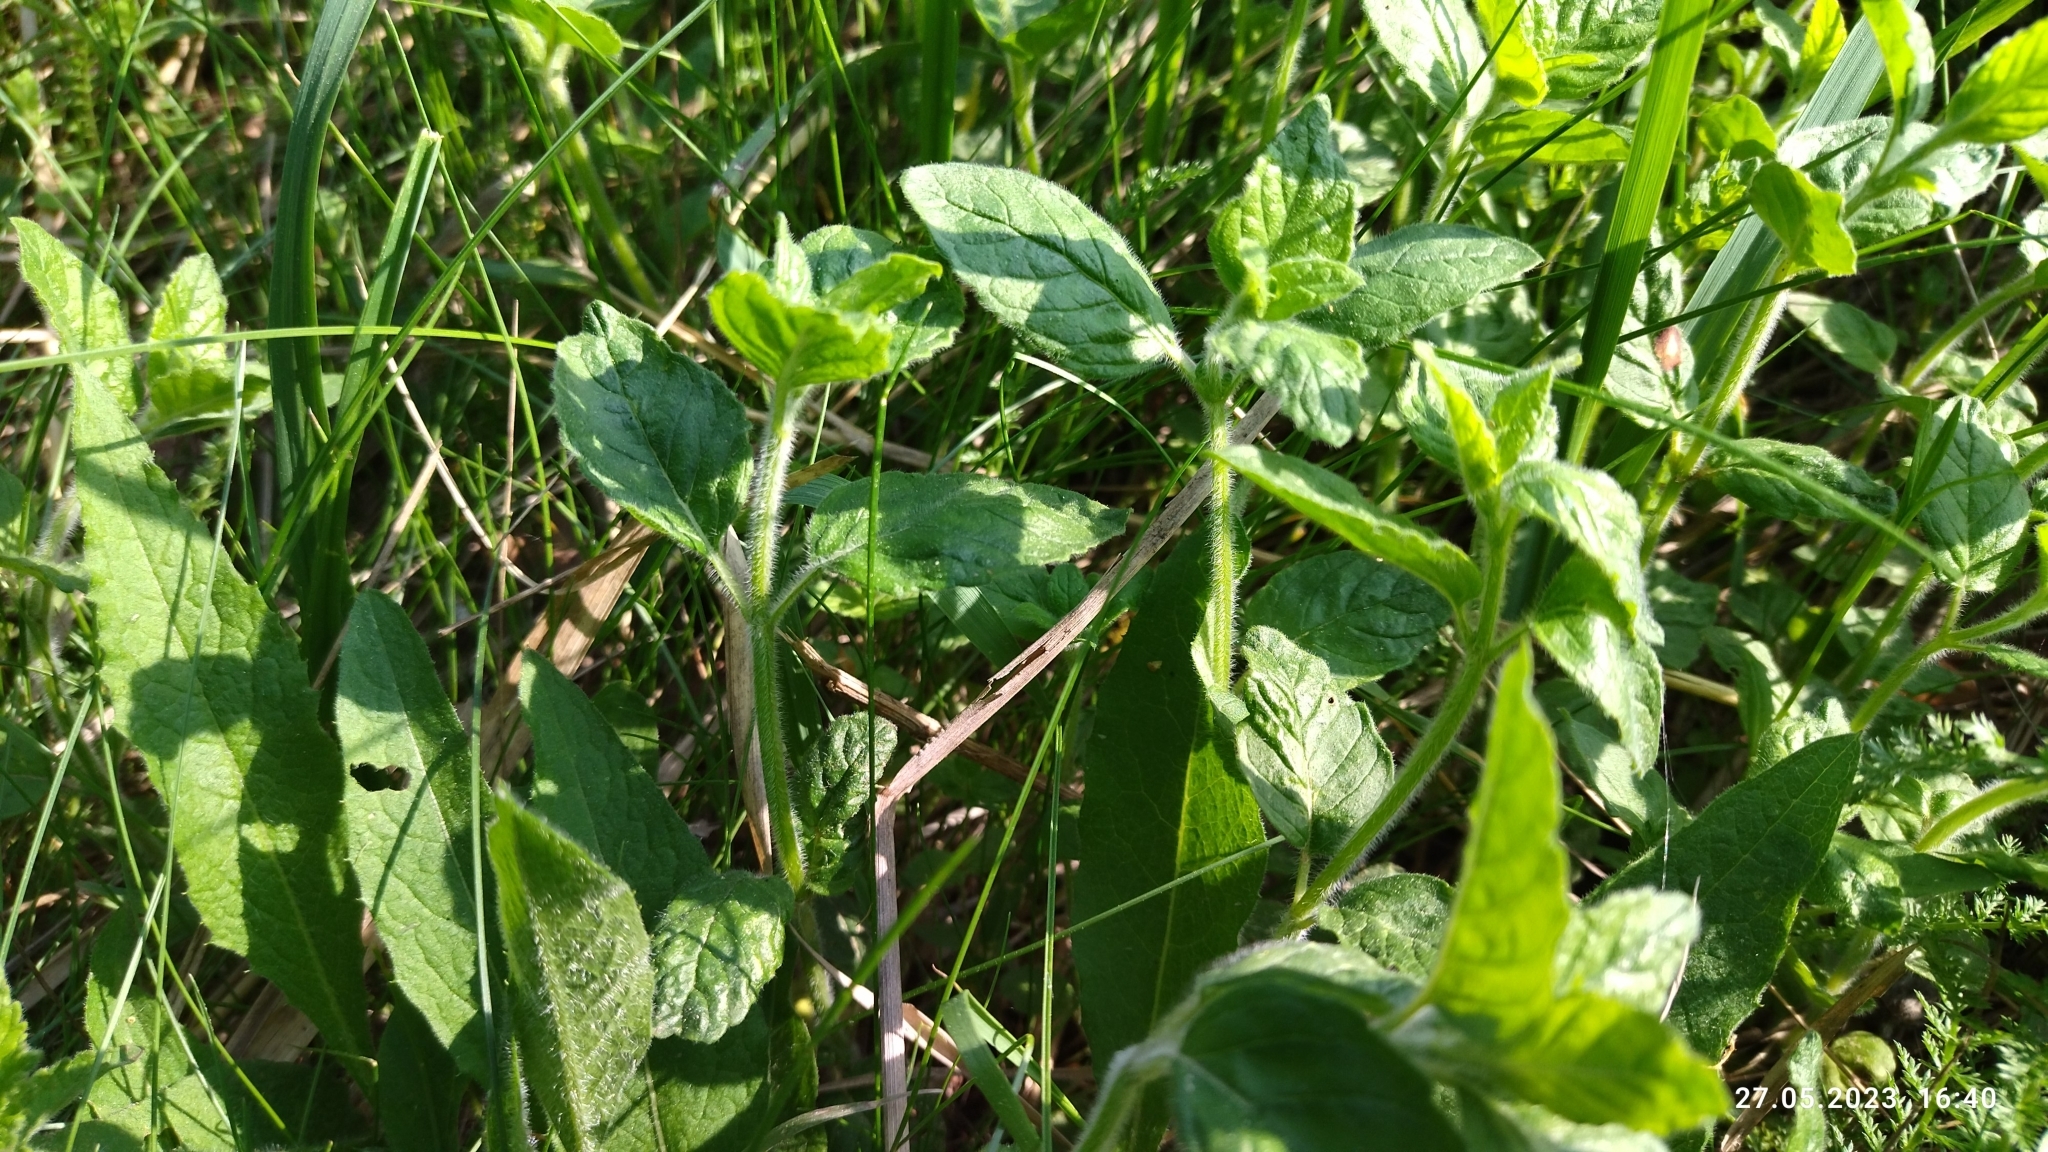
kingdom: Plantae
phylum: Tracheophyta
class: Magnoliopsida
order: Lamiales
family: Lamiaceae
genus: Clinopodium
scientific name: Clinopodium vulgare
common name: Wild basil
